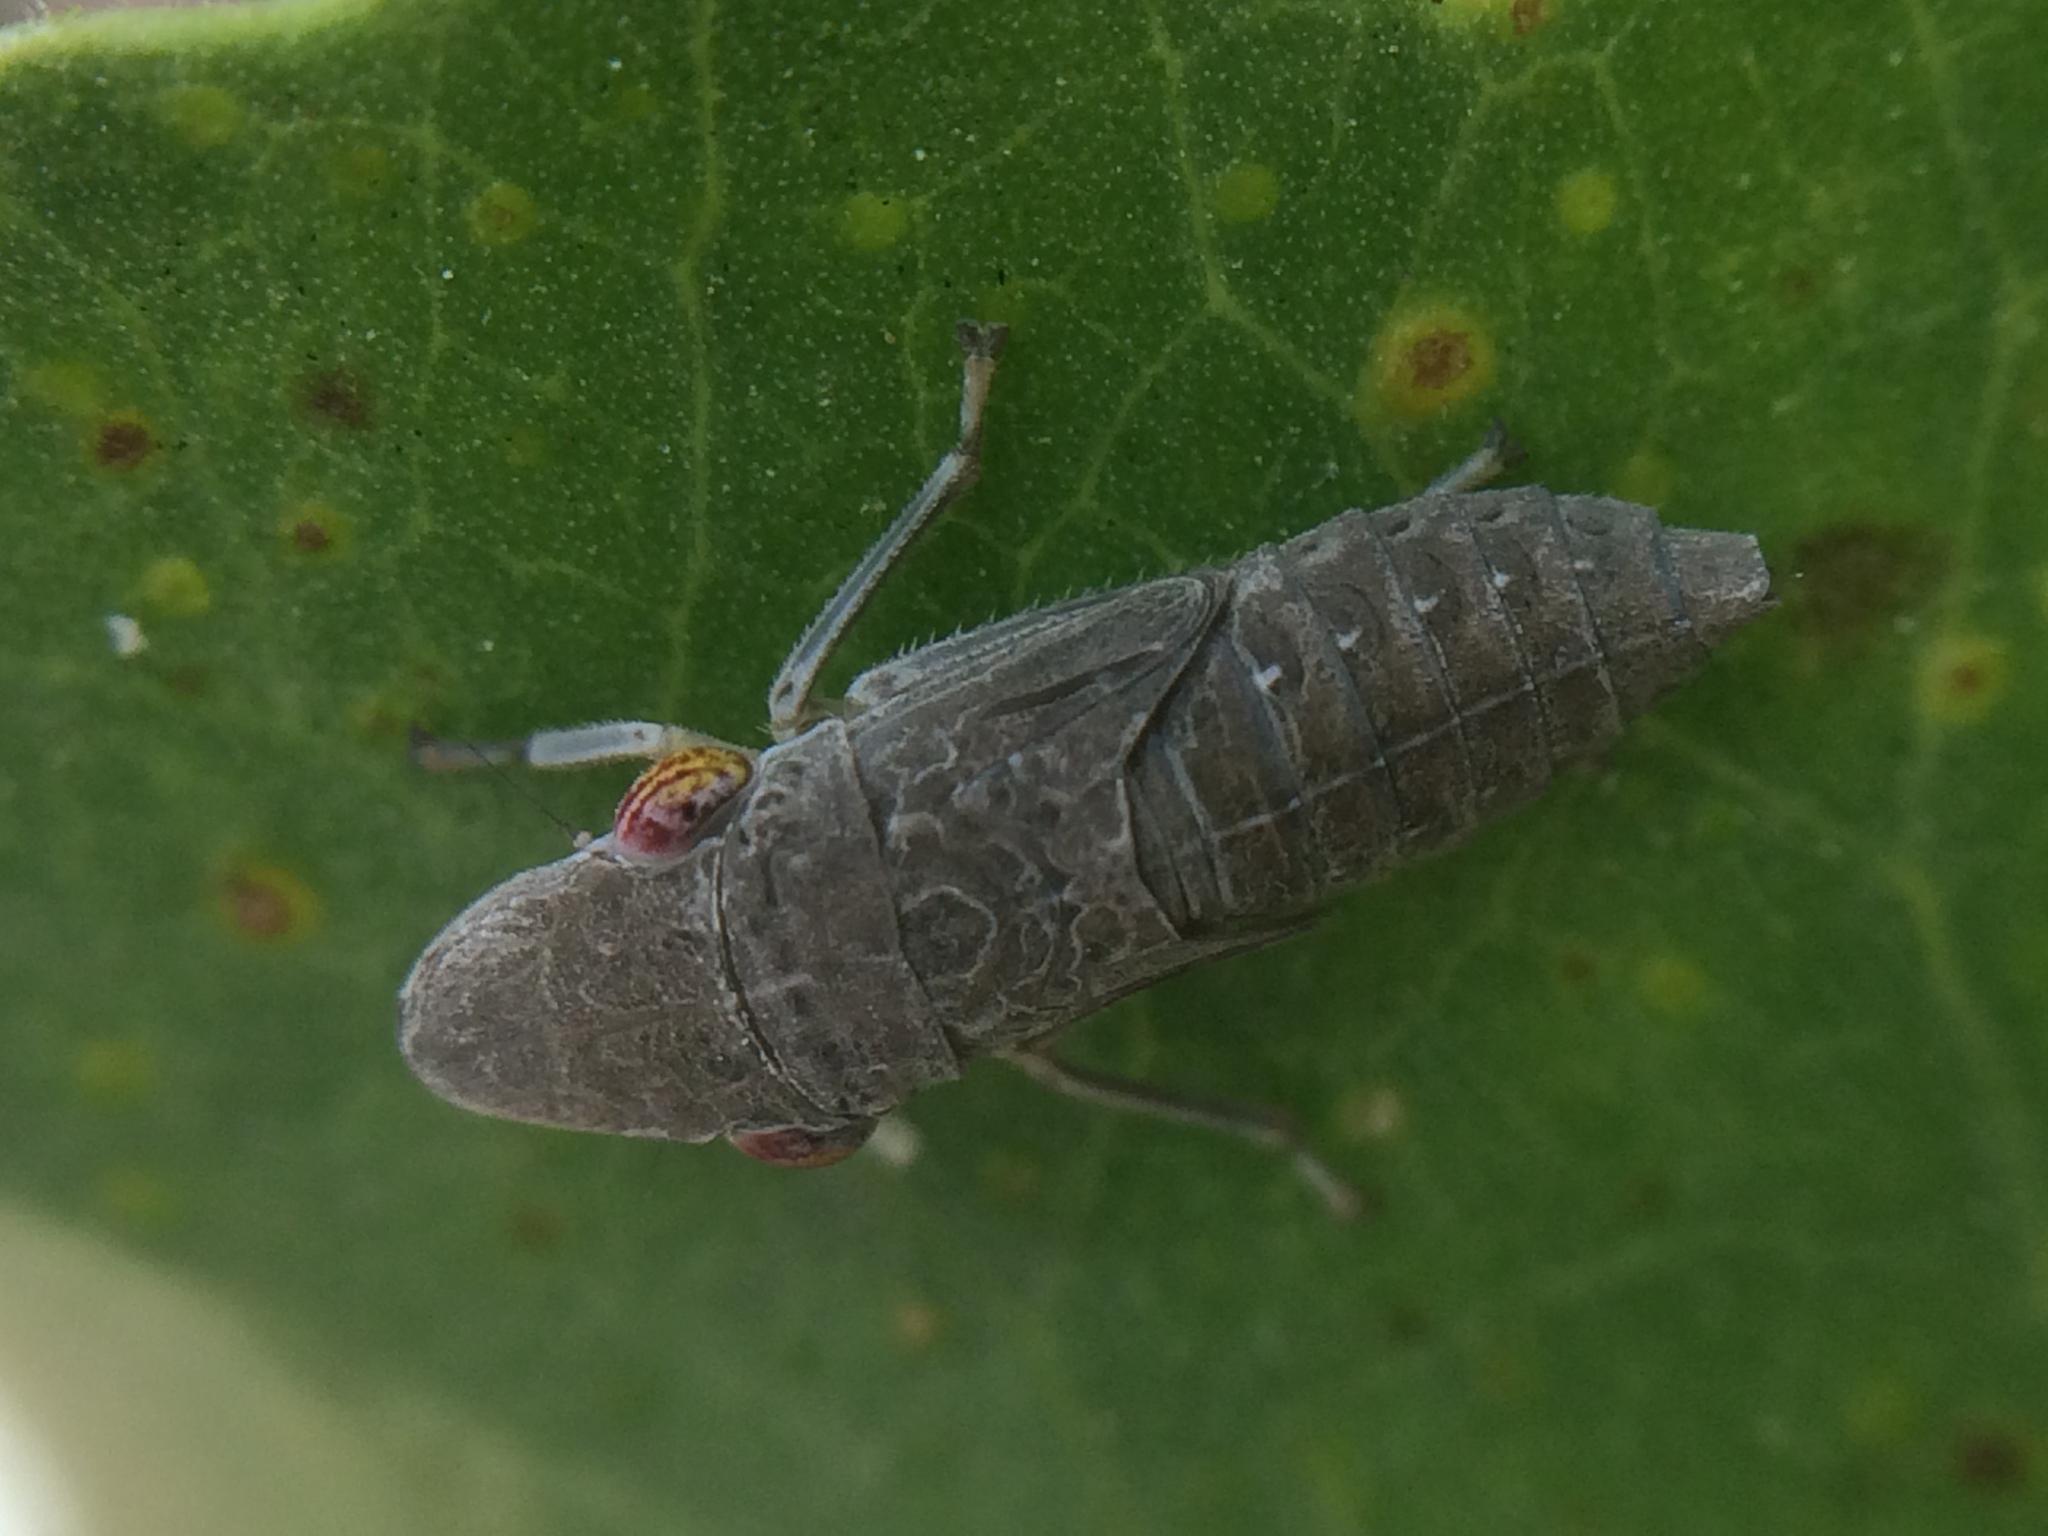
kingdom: Animalia
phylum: Arthropoda
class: Insecta
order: Hemiptera
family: Cicadellidae
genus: Homalodisca
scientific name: Homalodisca
